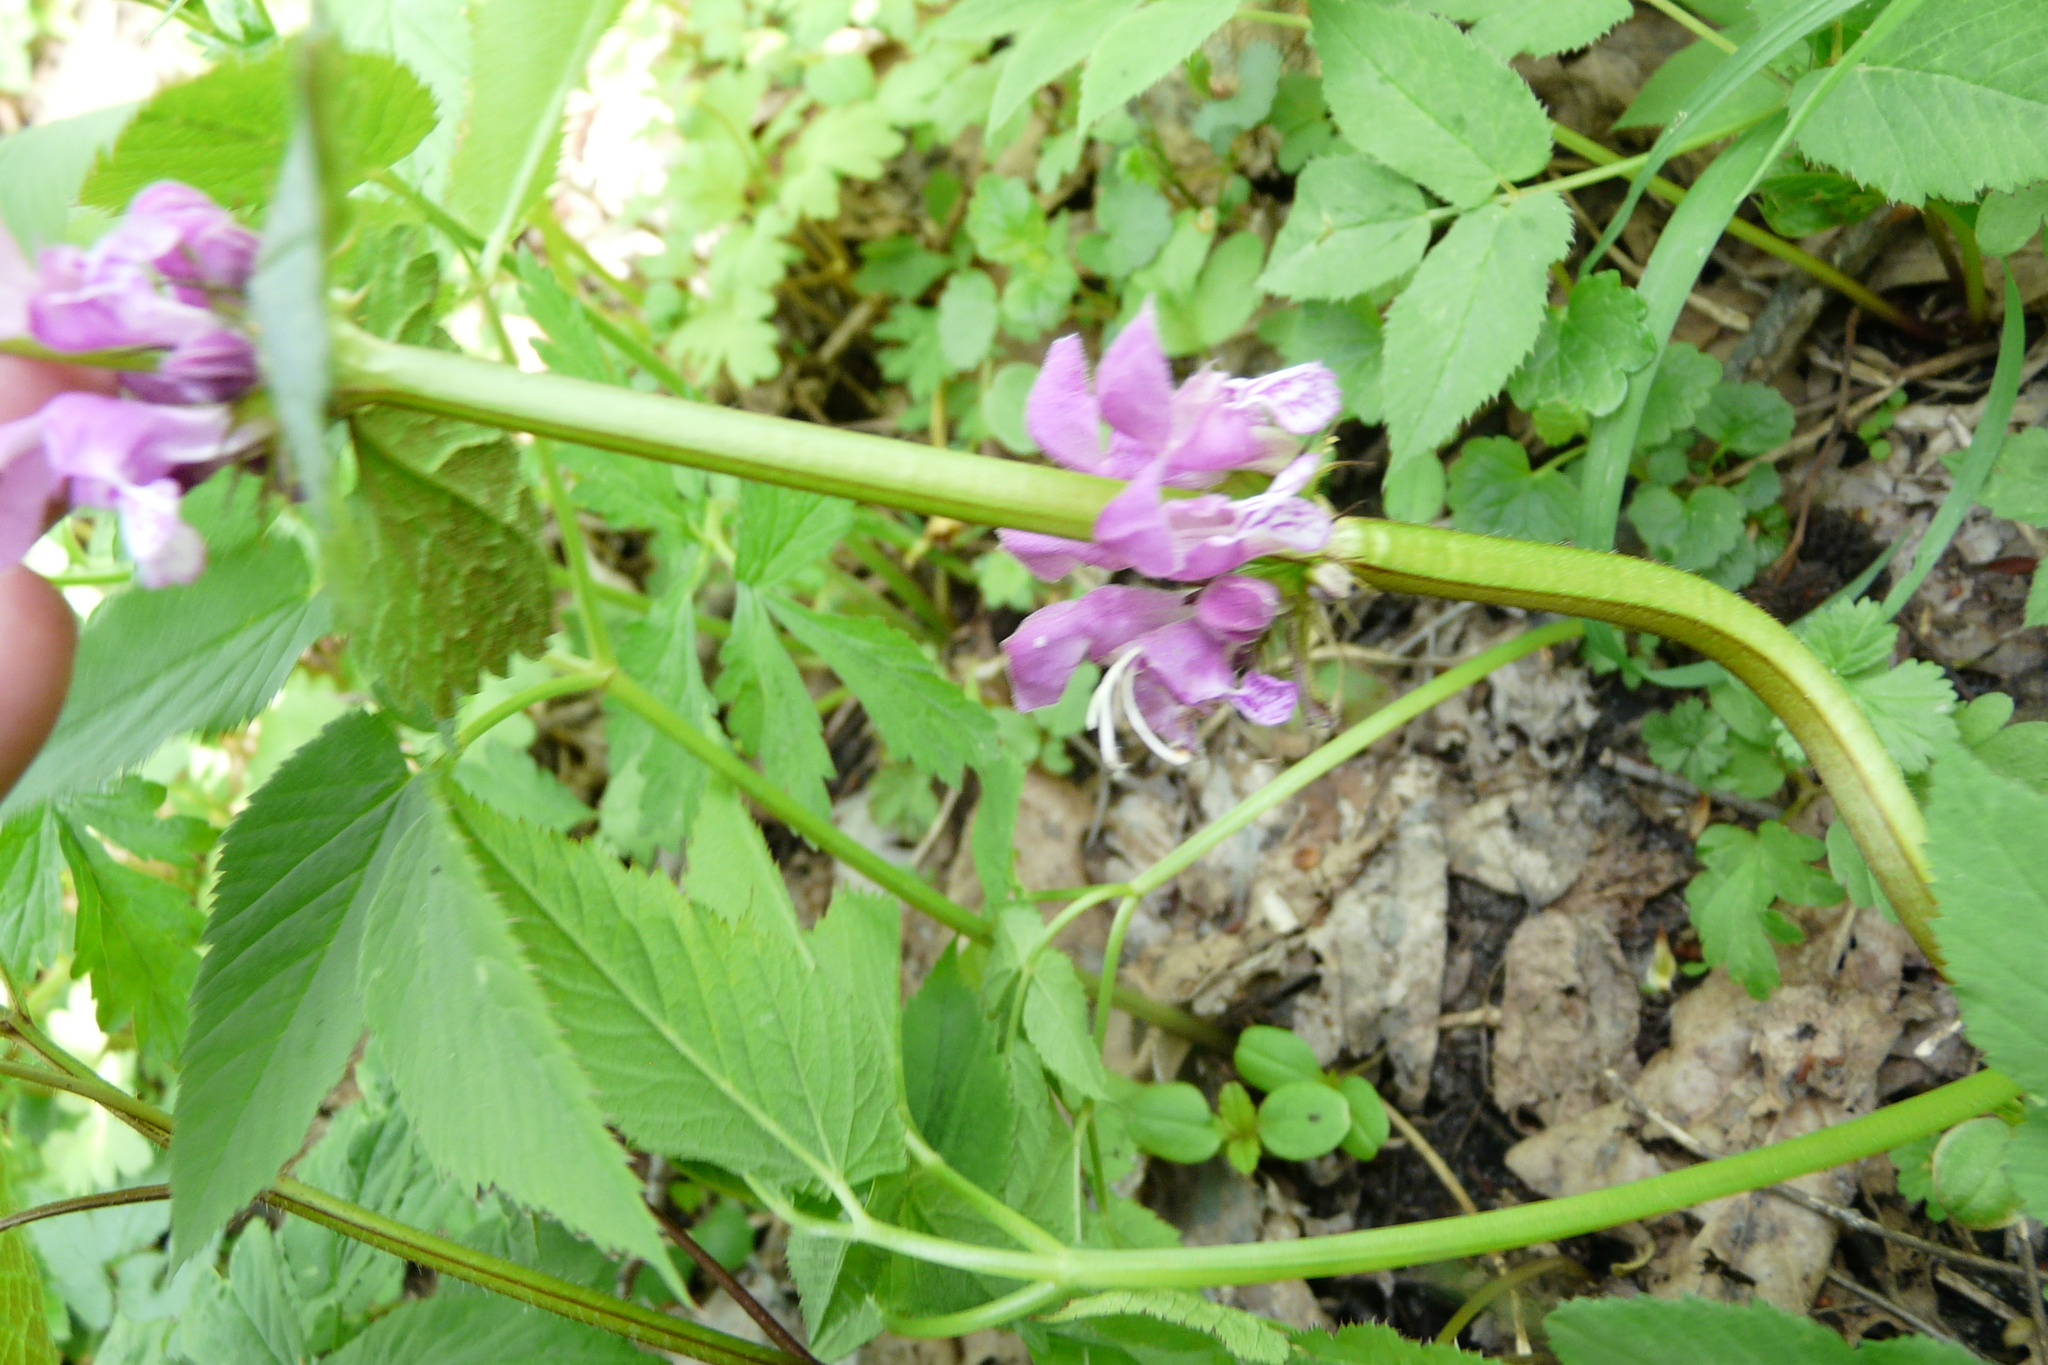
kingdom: Plantae
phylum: Tracheophyta
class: Magnoliopsida
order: Lamiales
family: Lamiaceae
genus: Lamium
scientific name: Lamium maculatum
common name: Spotted dead-nettle
